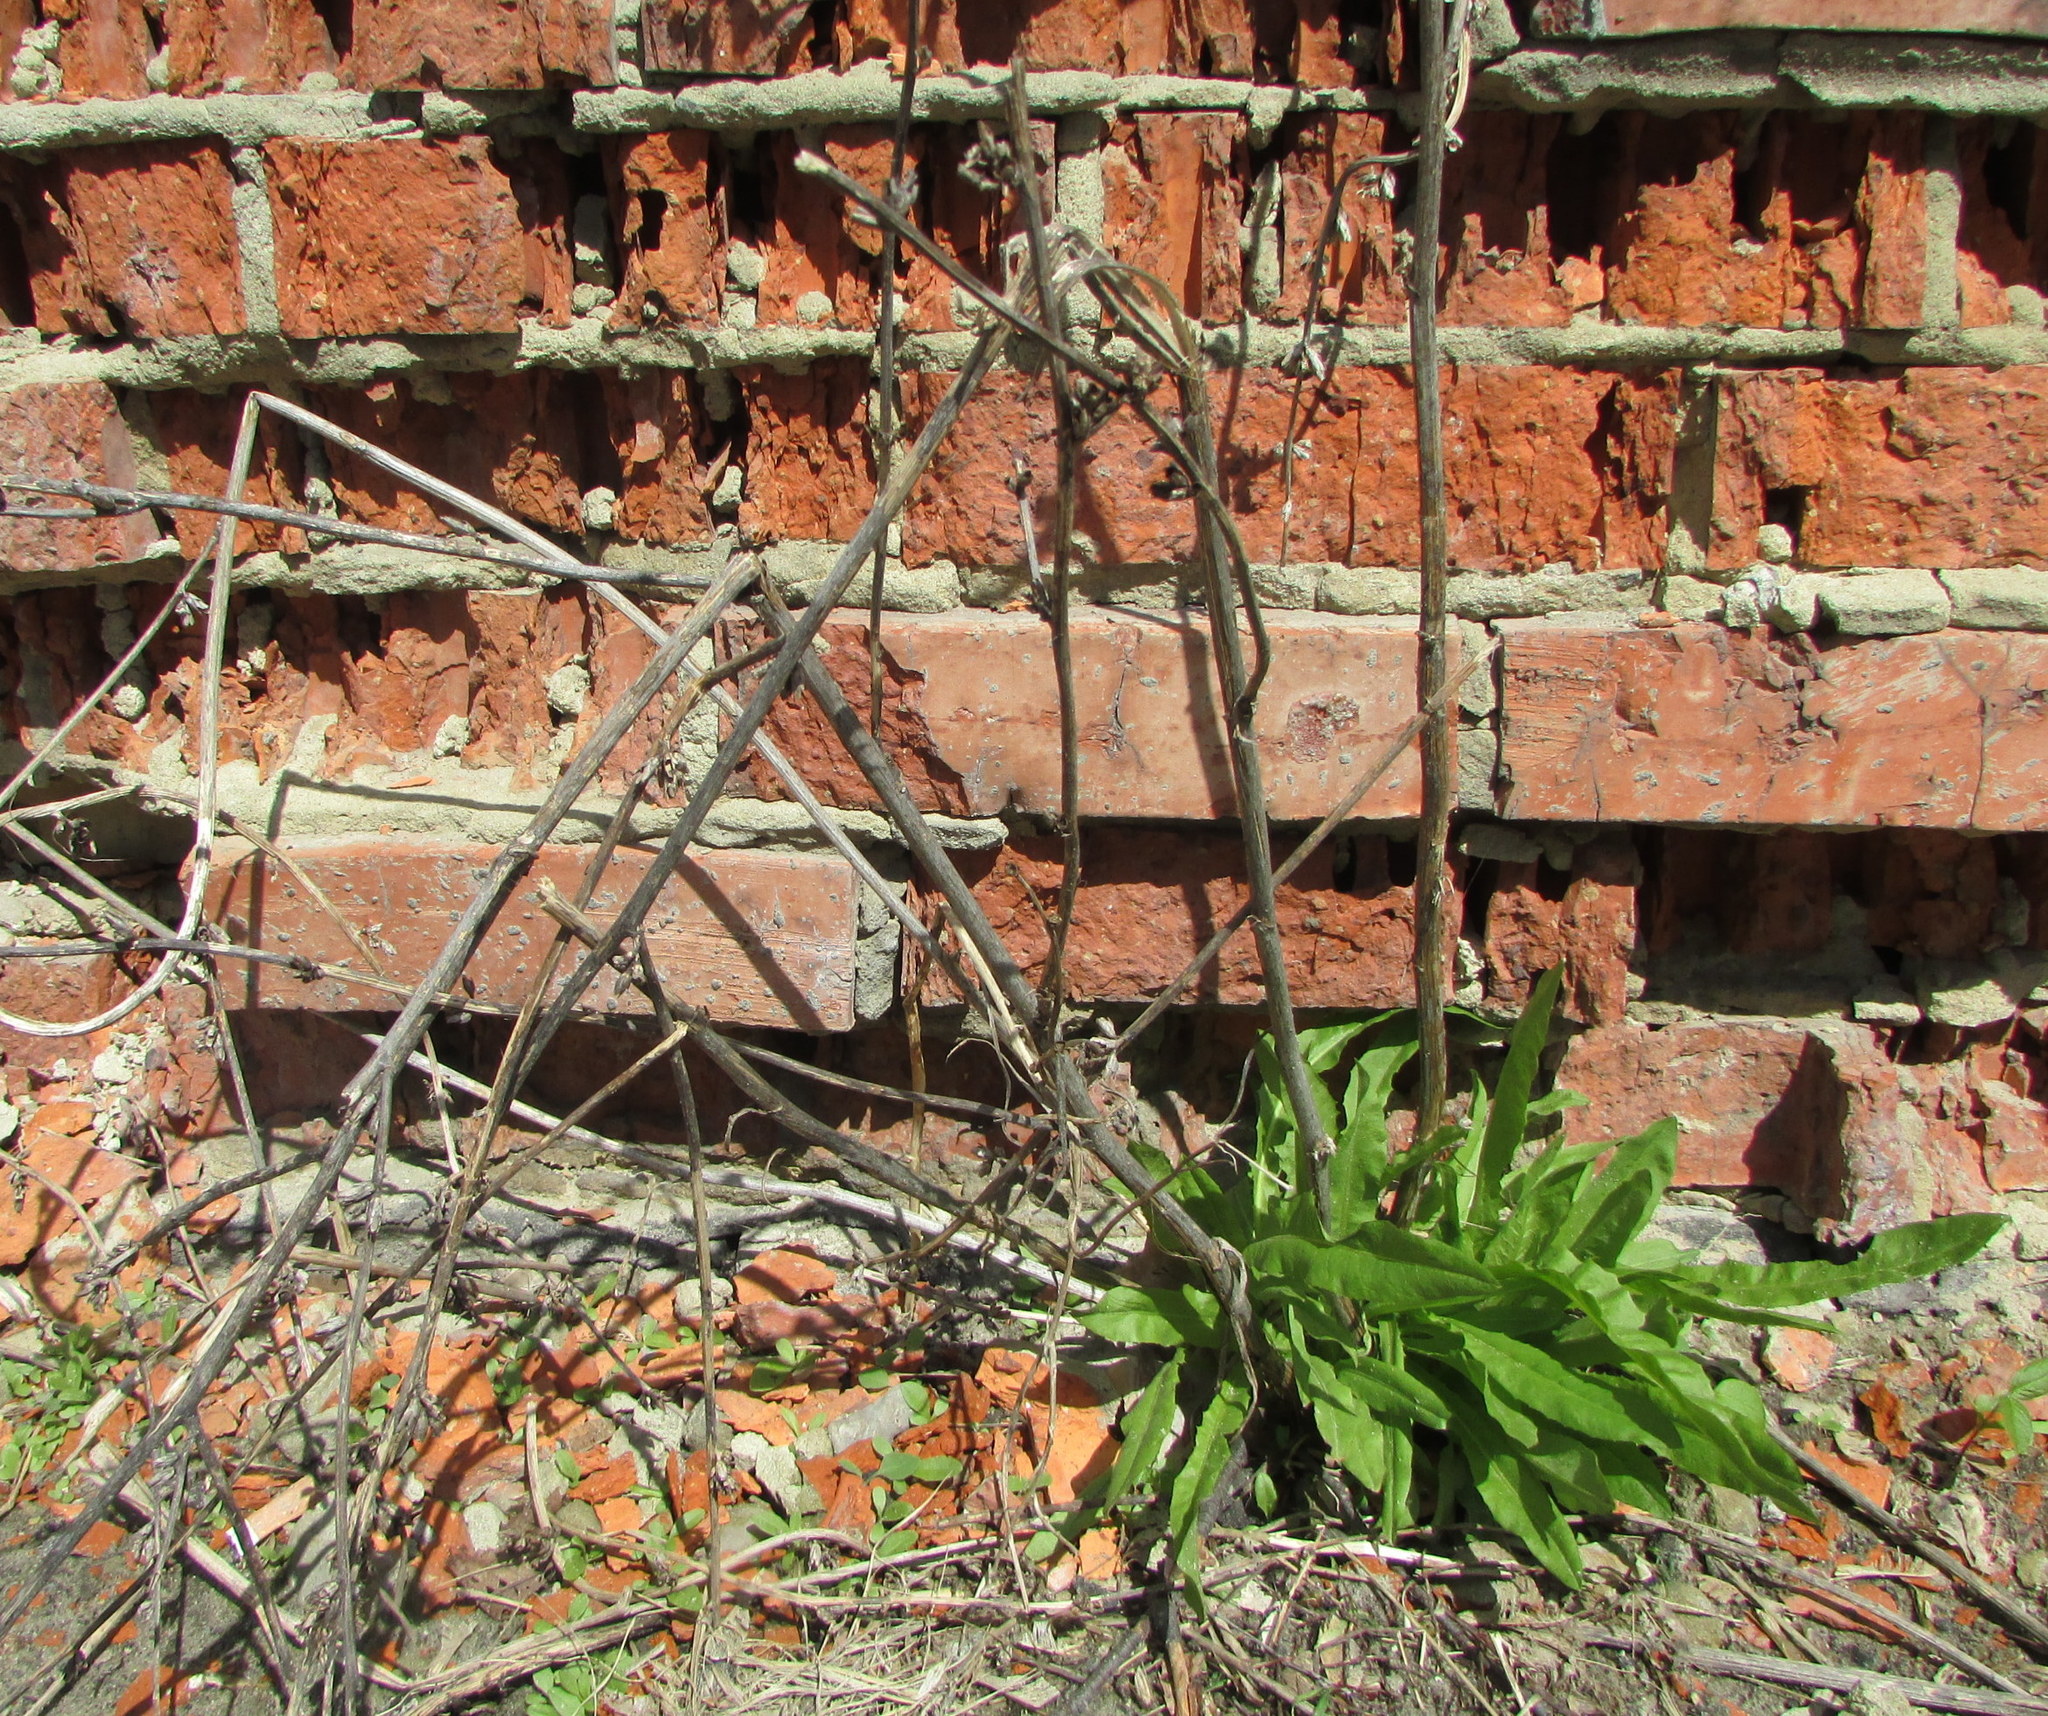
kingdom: Plantae
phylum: Tracheophyta
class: Magnoliopsida
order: Asterales
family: Asteraceae
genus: Cichorium
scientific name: Cichorium intybus
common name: Chicory
